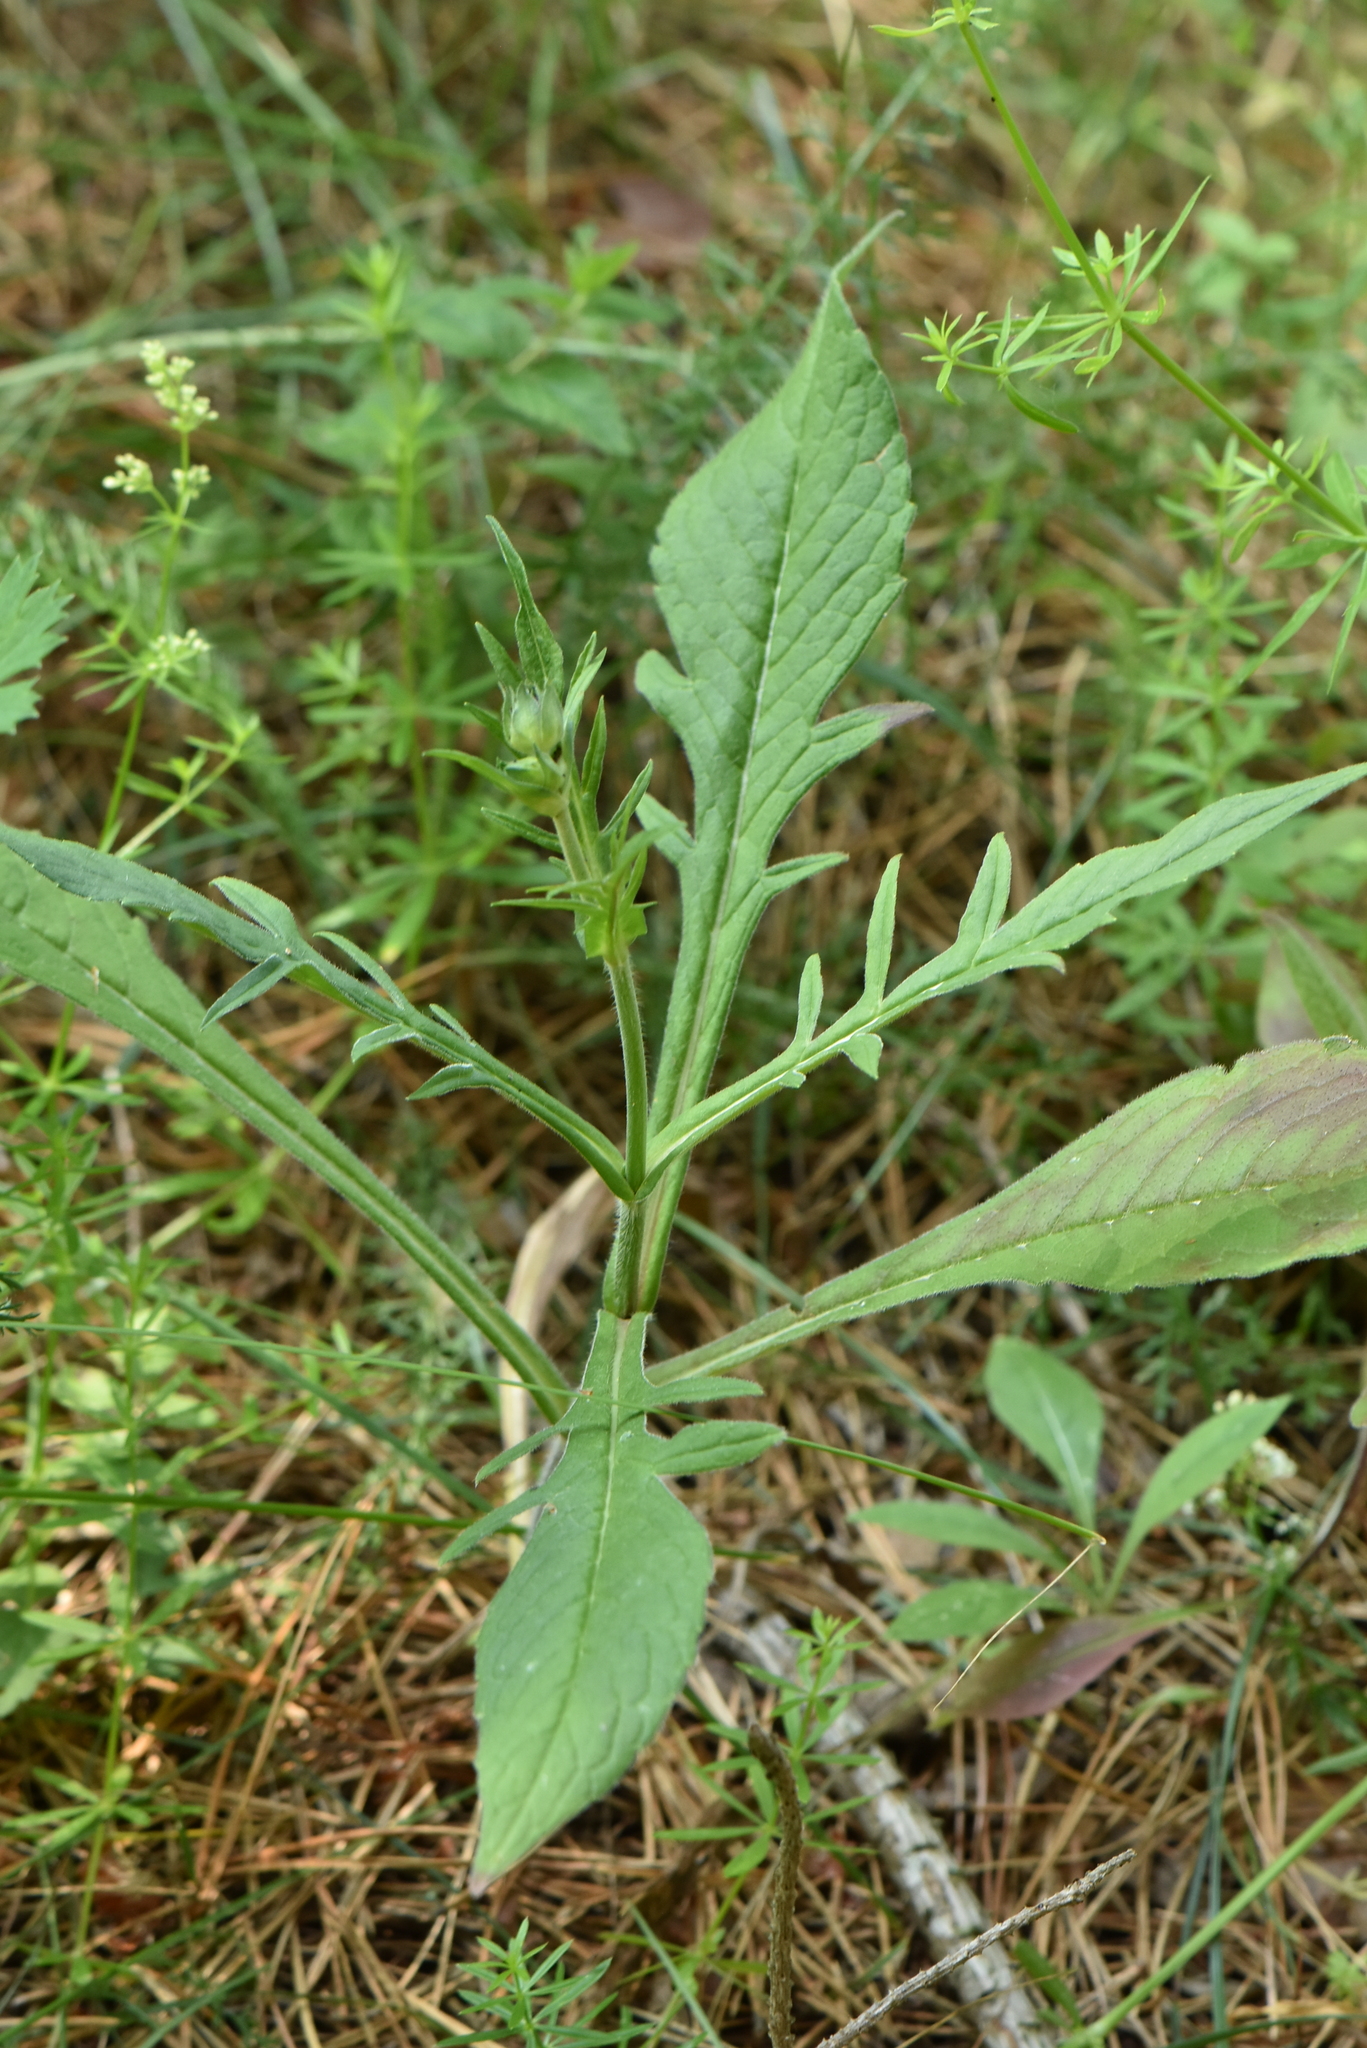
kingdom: Plantae
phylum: Tracheophyta
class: Magnoliopsida
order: Dipsacales
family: Caprifoliaceae
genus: Knautia
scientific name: Knautia arvensis
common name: Field scabiosa
